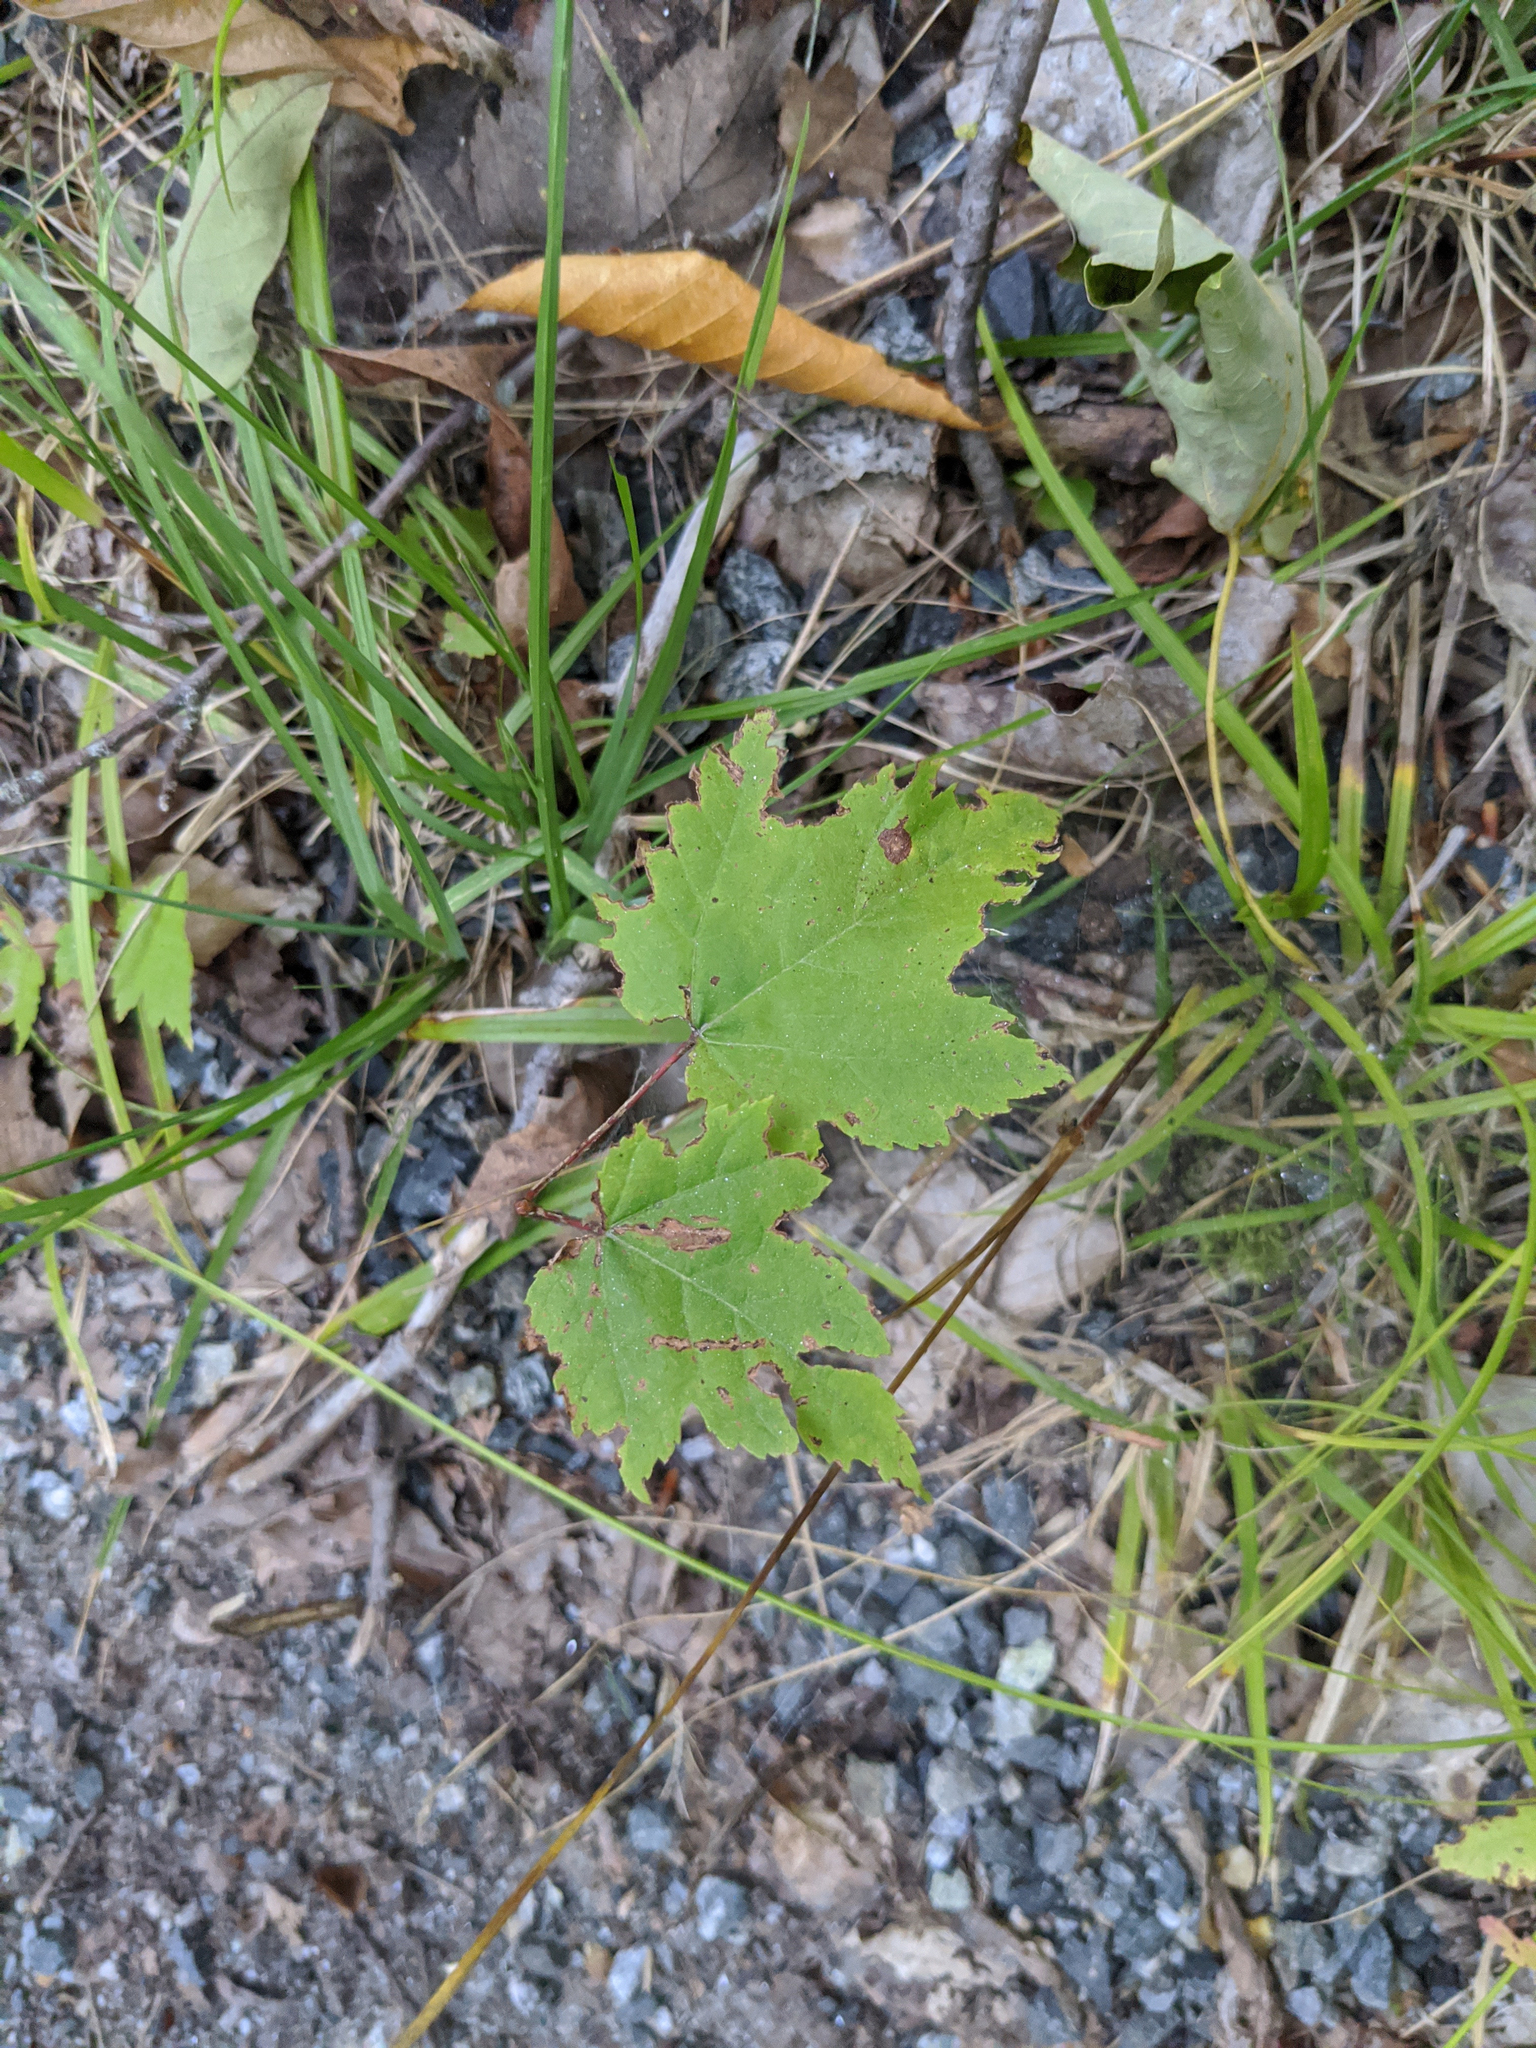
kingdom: Plantae
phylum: Tracheophyta
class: Magnoliopsida
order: Sapindales
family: Sapindaceae
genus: Acer
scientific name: Acer rubrum
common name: Red maple
